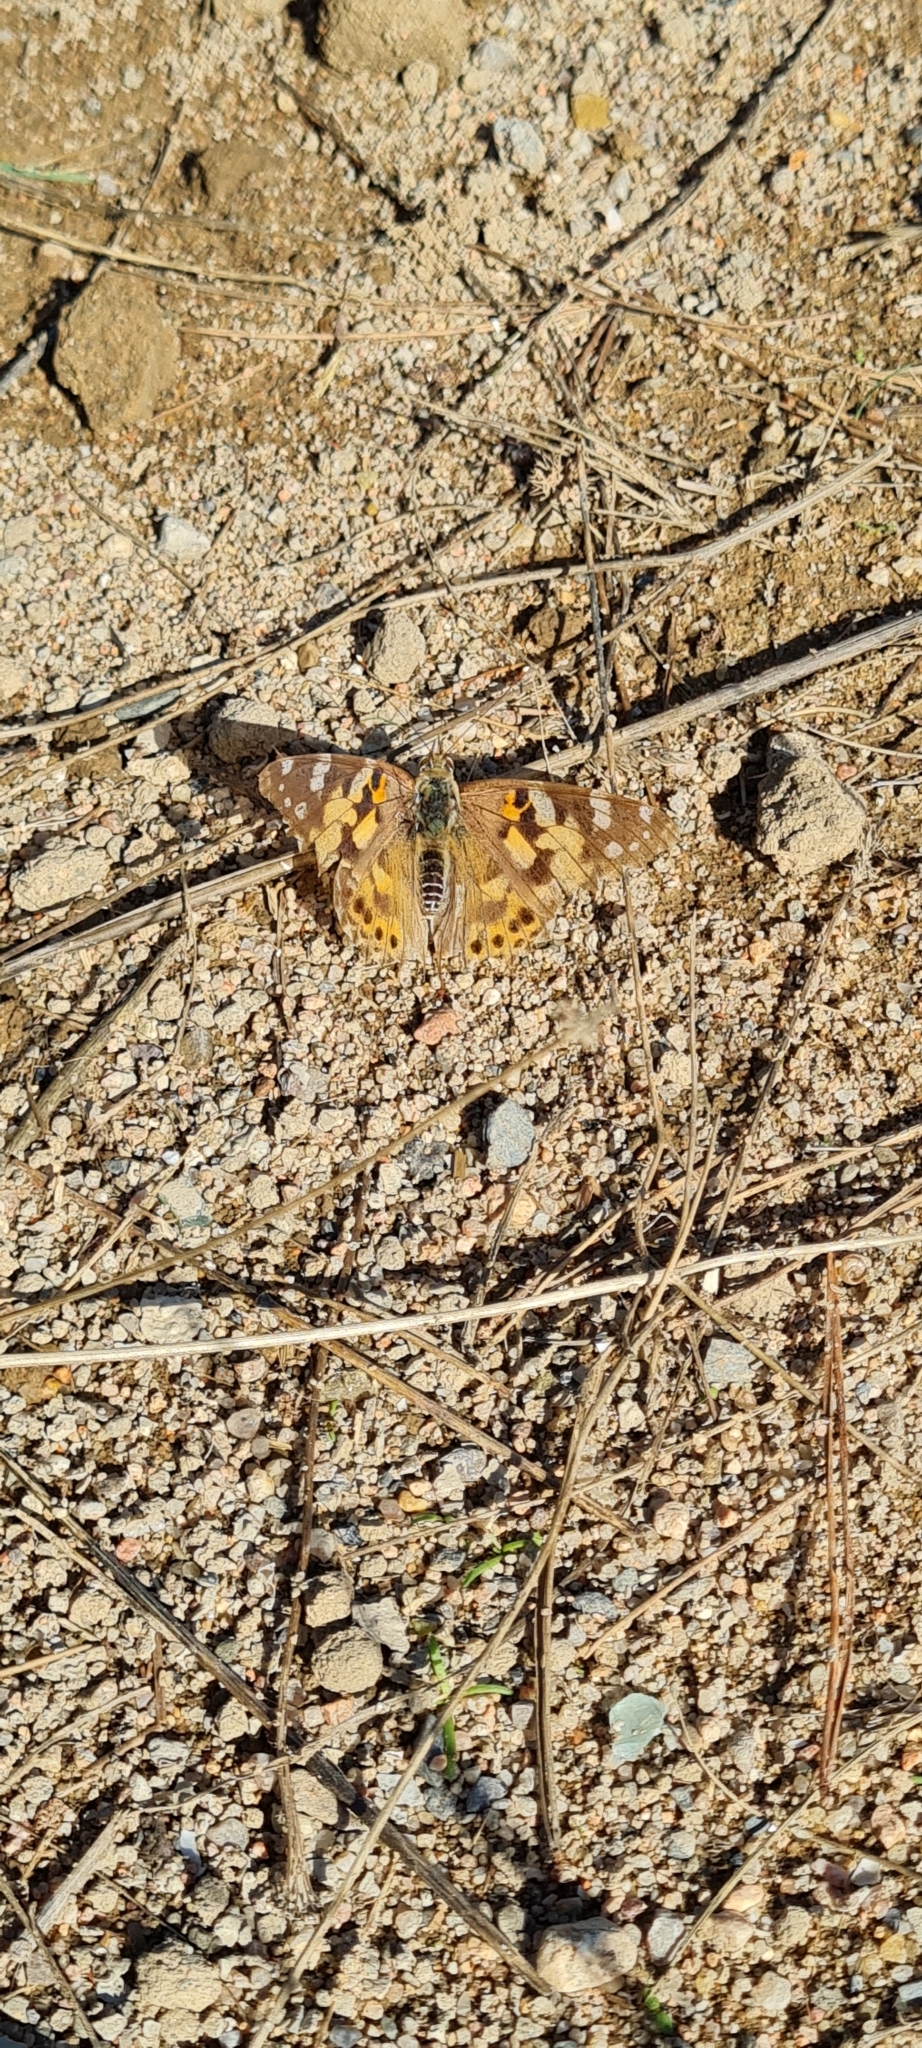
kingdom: Animalia
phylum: Arthropoda
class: Insecta
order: Lepidoptera
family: Nymphalidae
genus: Vanessa
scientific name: Vanessa cardui
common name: Painted lady
